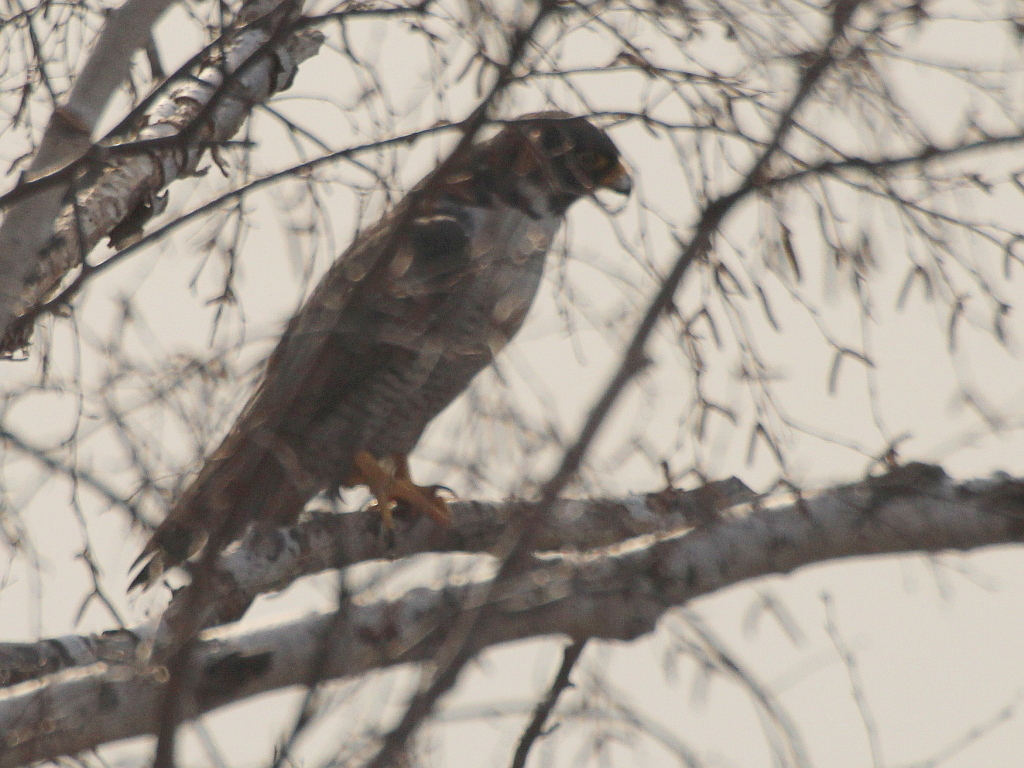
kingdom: Animalia
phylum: Chordata
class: Aves
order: Falconiformes
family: Falconidae
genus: Falco
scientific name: Falco peregrinus
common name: Peregrine falcon
